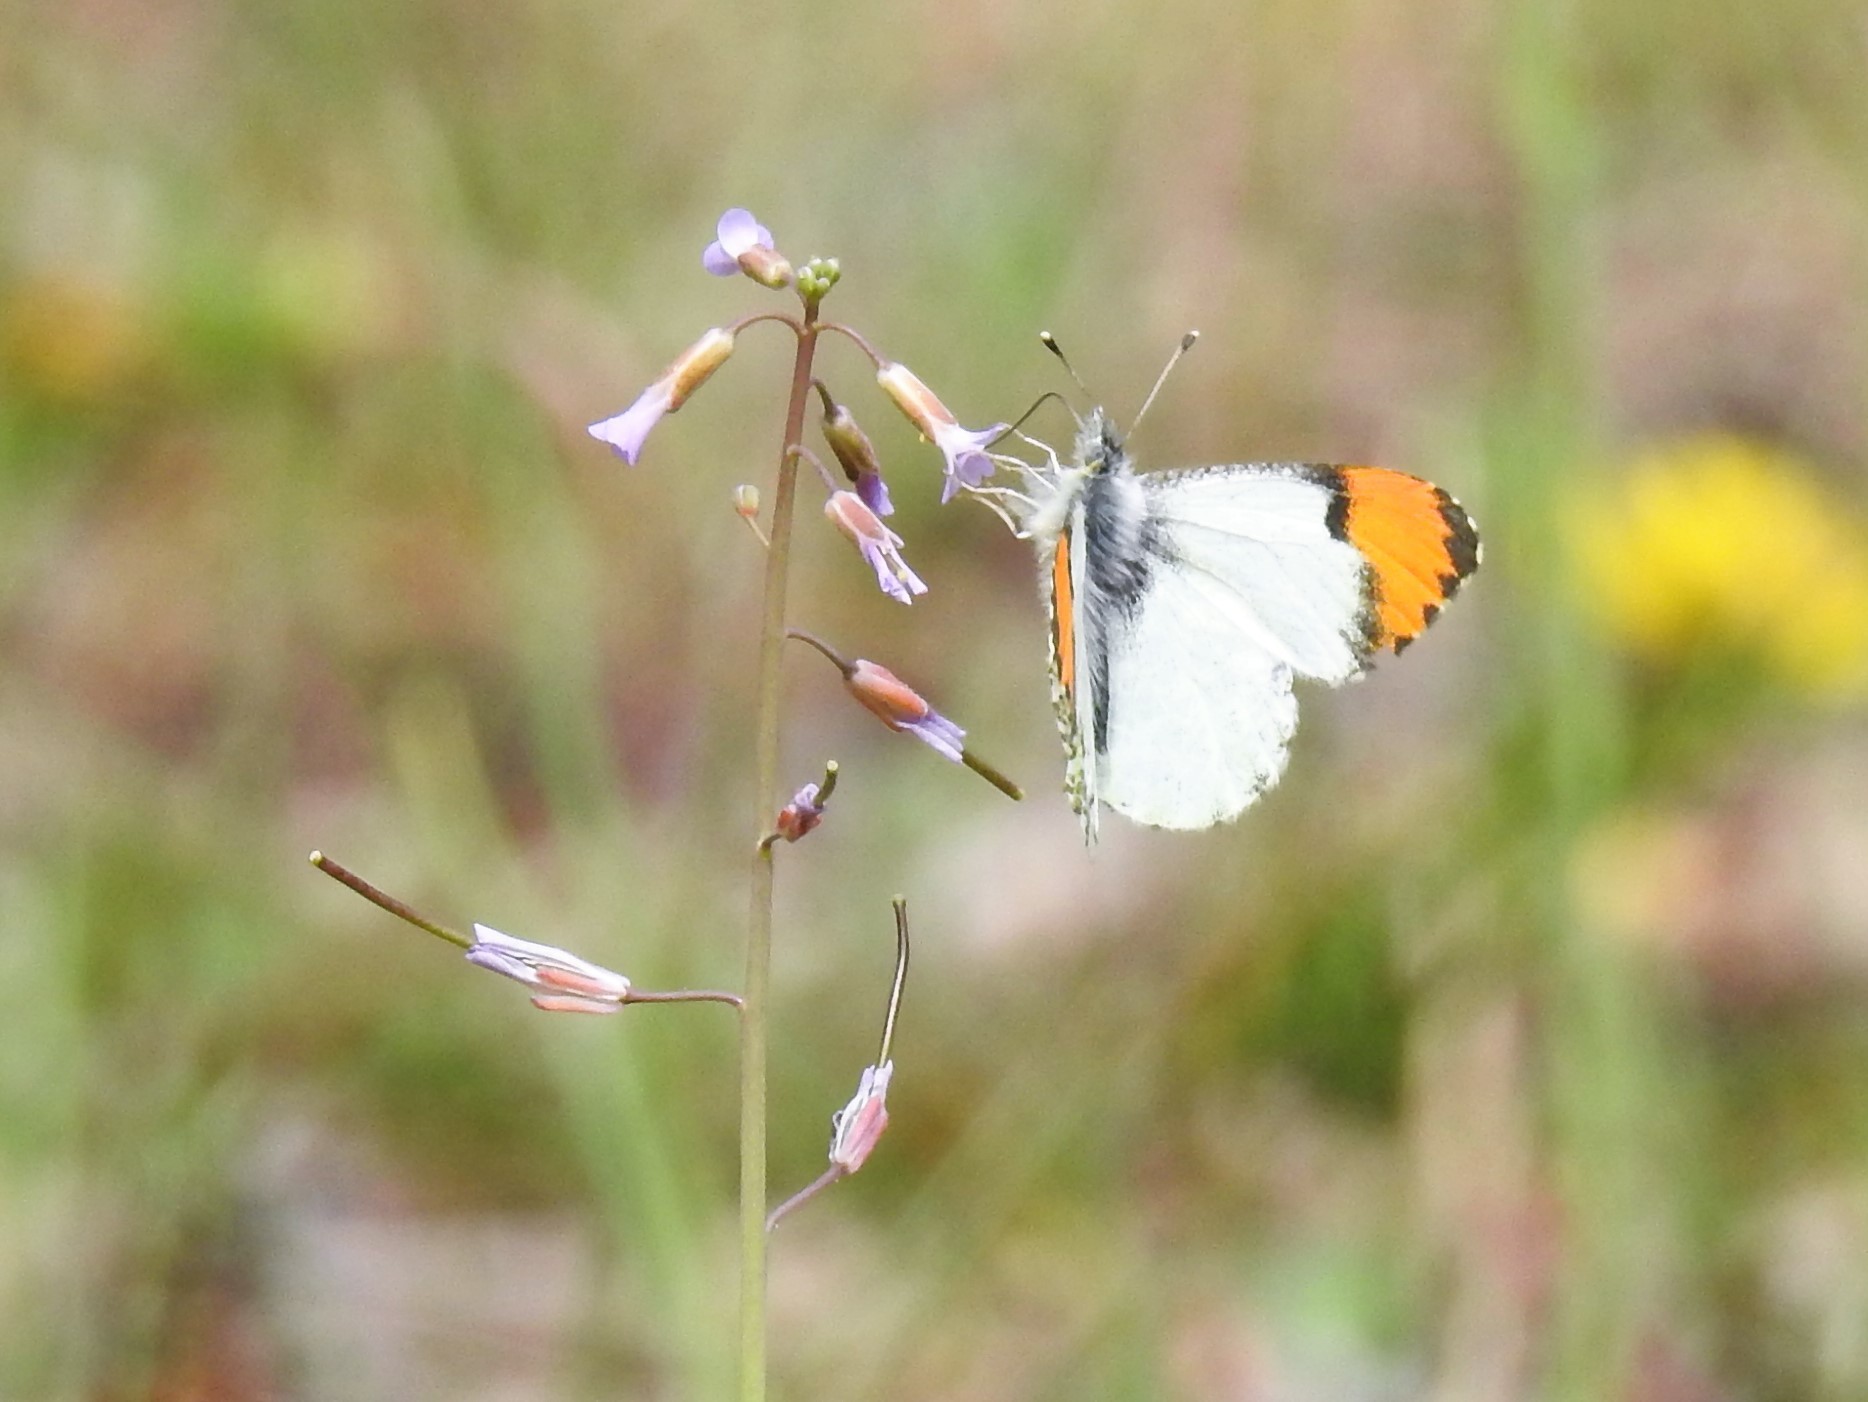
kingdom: Animalia
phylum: Arthropoda
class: Insecta
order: Lepidoptera
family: Pieridae
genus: Anthocharis
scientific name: Anthocharis julia
